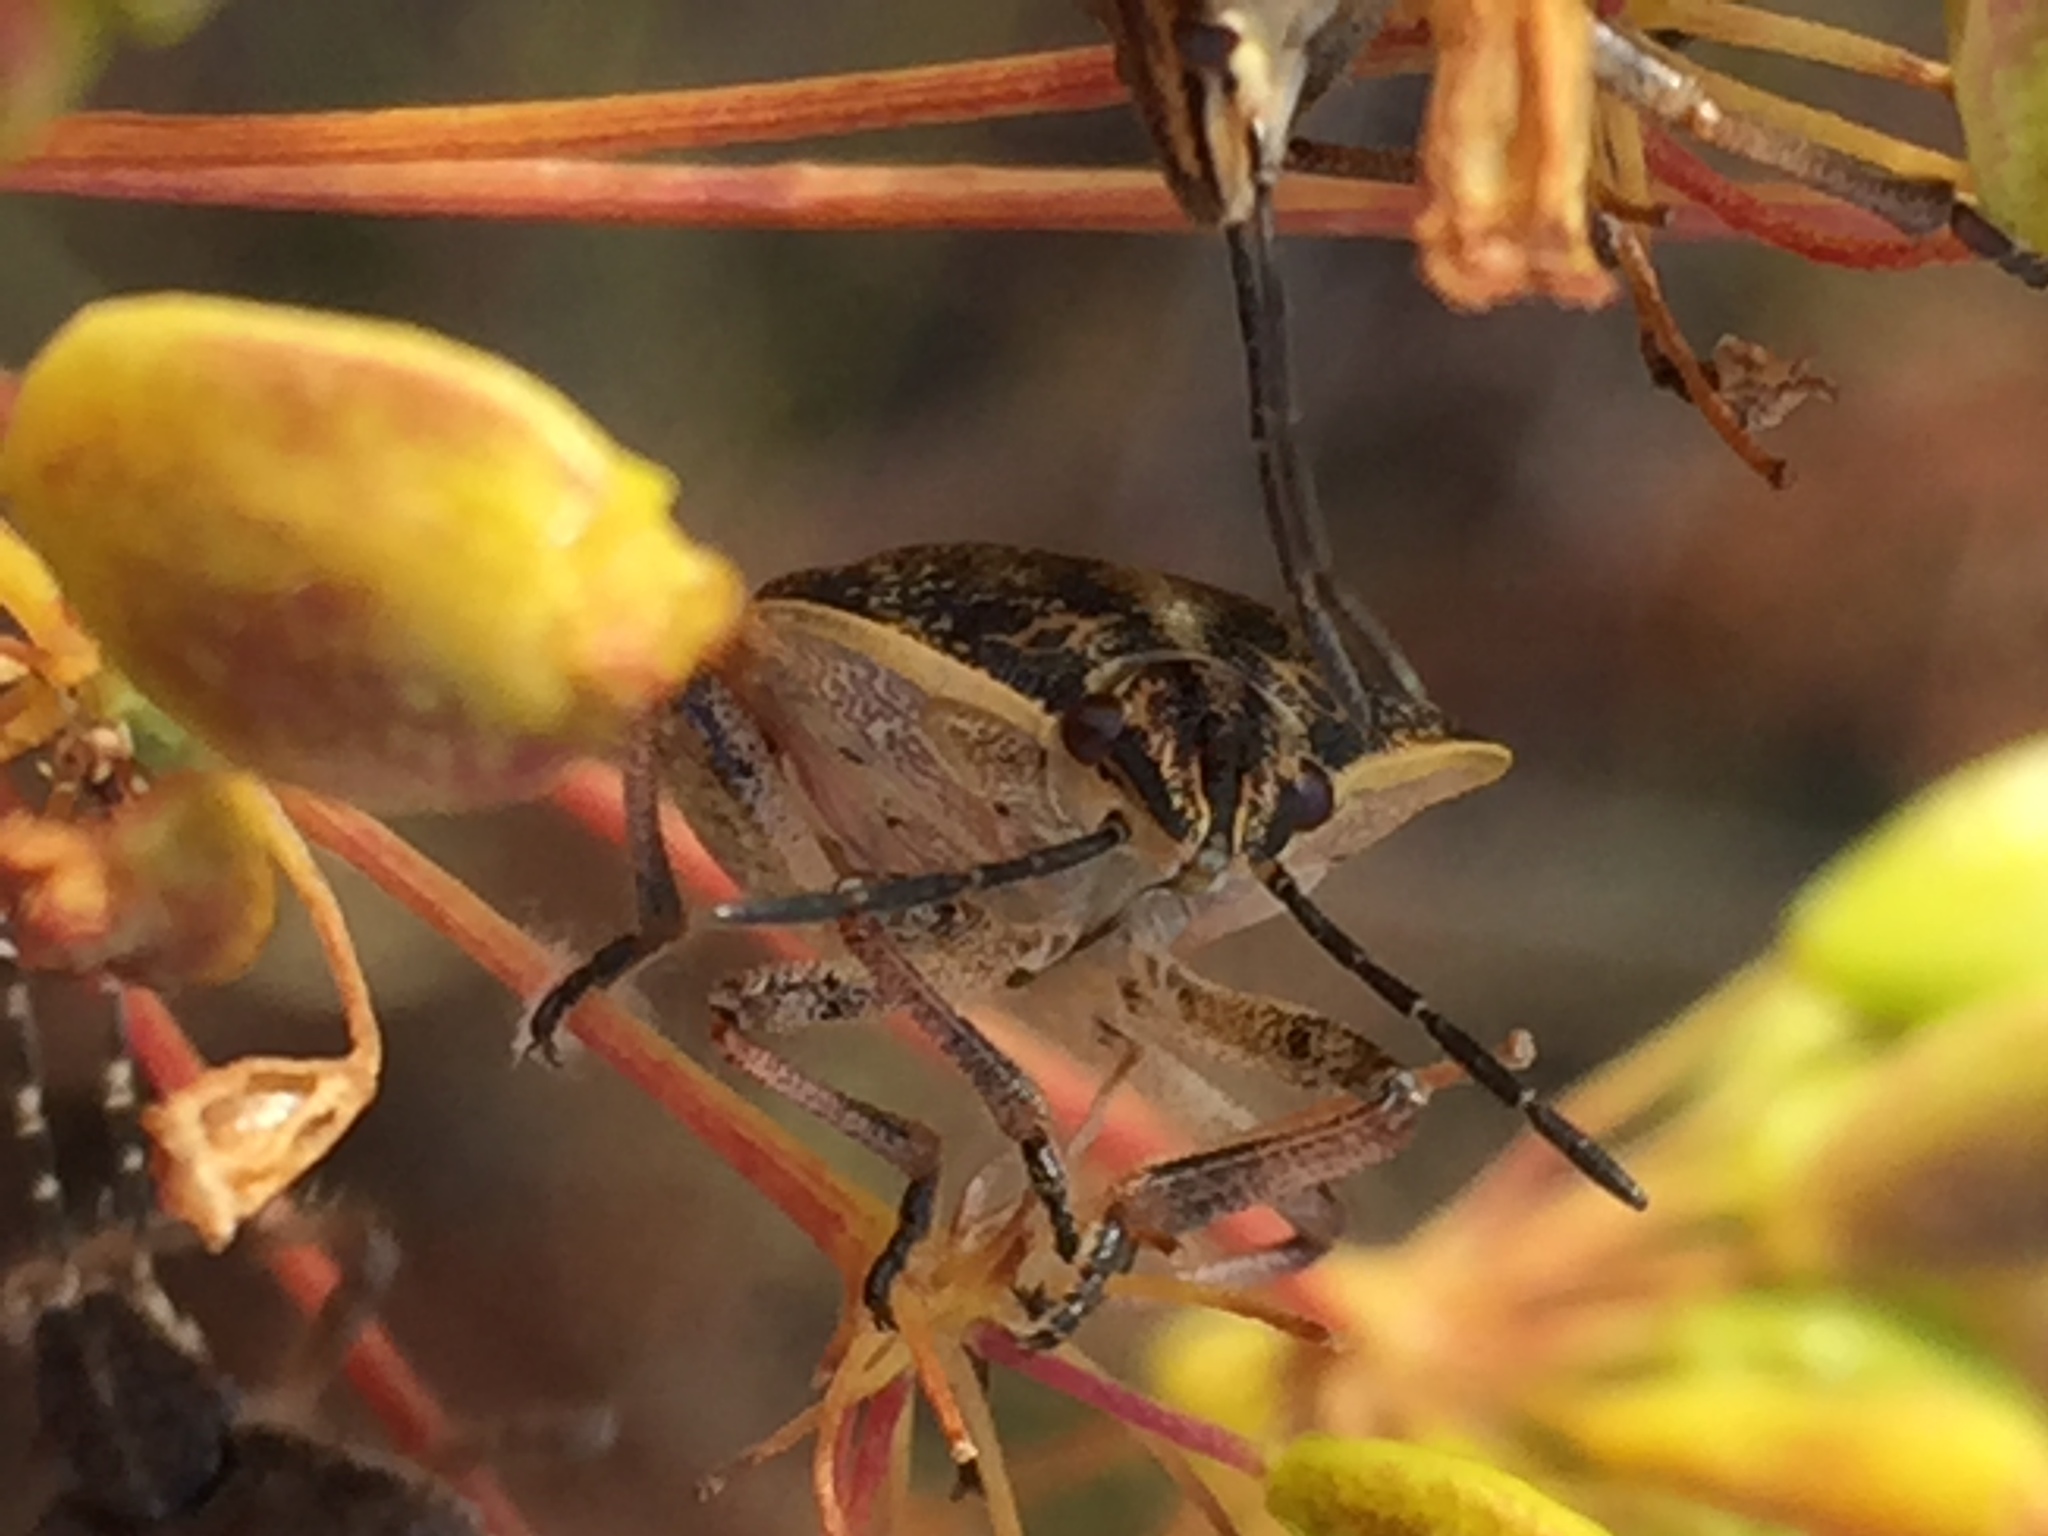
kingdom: Animalia
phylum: Arthropoda
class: Insecta
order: Hemiptera
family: Pentatomidae
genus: Dolycoris
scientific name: Dolycoris baccarum
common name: Sloe bug
